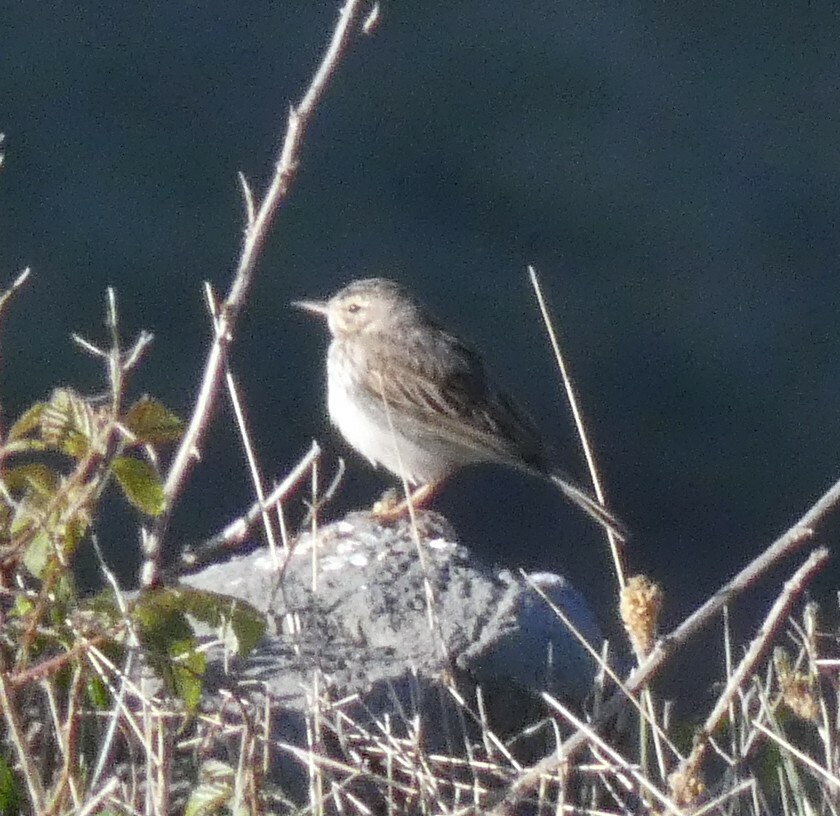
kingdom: Animalia
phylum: Chordata
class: Aves
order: Passeriformes
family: Motacillidae
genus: Anthus
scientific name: Anthus berthelotii
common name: Berthelot's pipit
